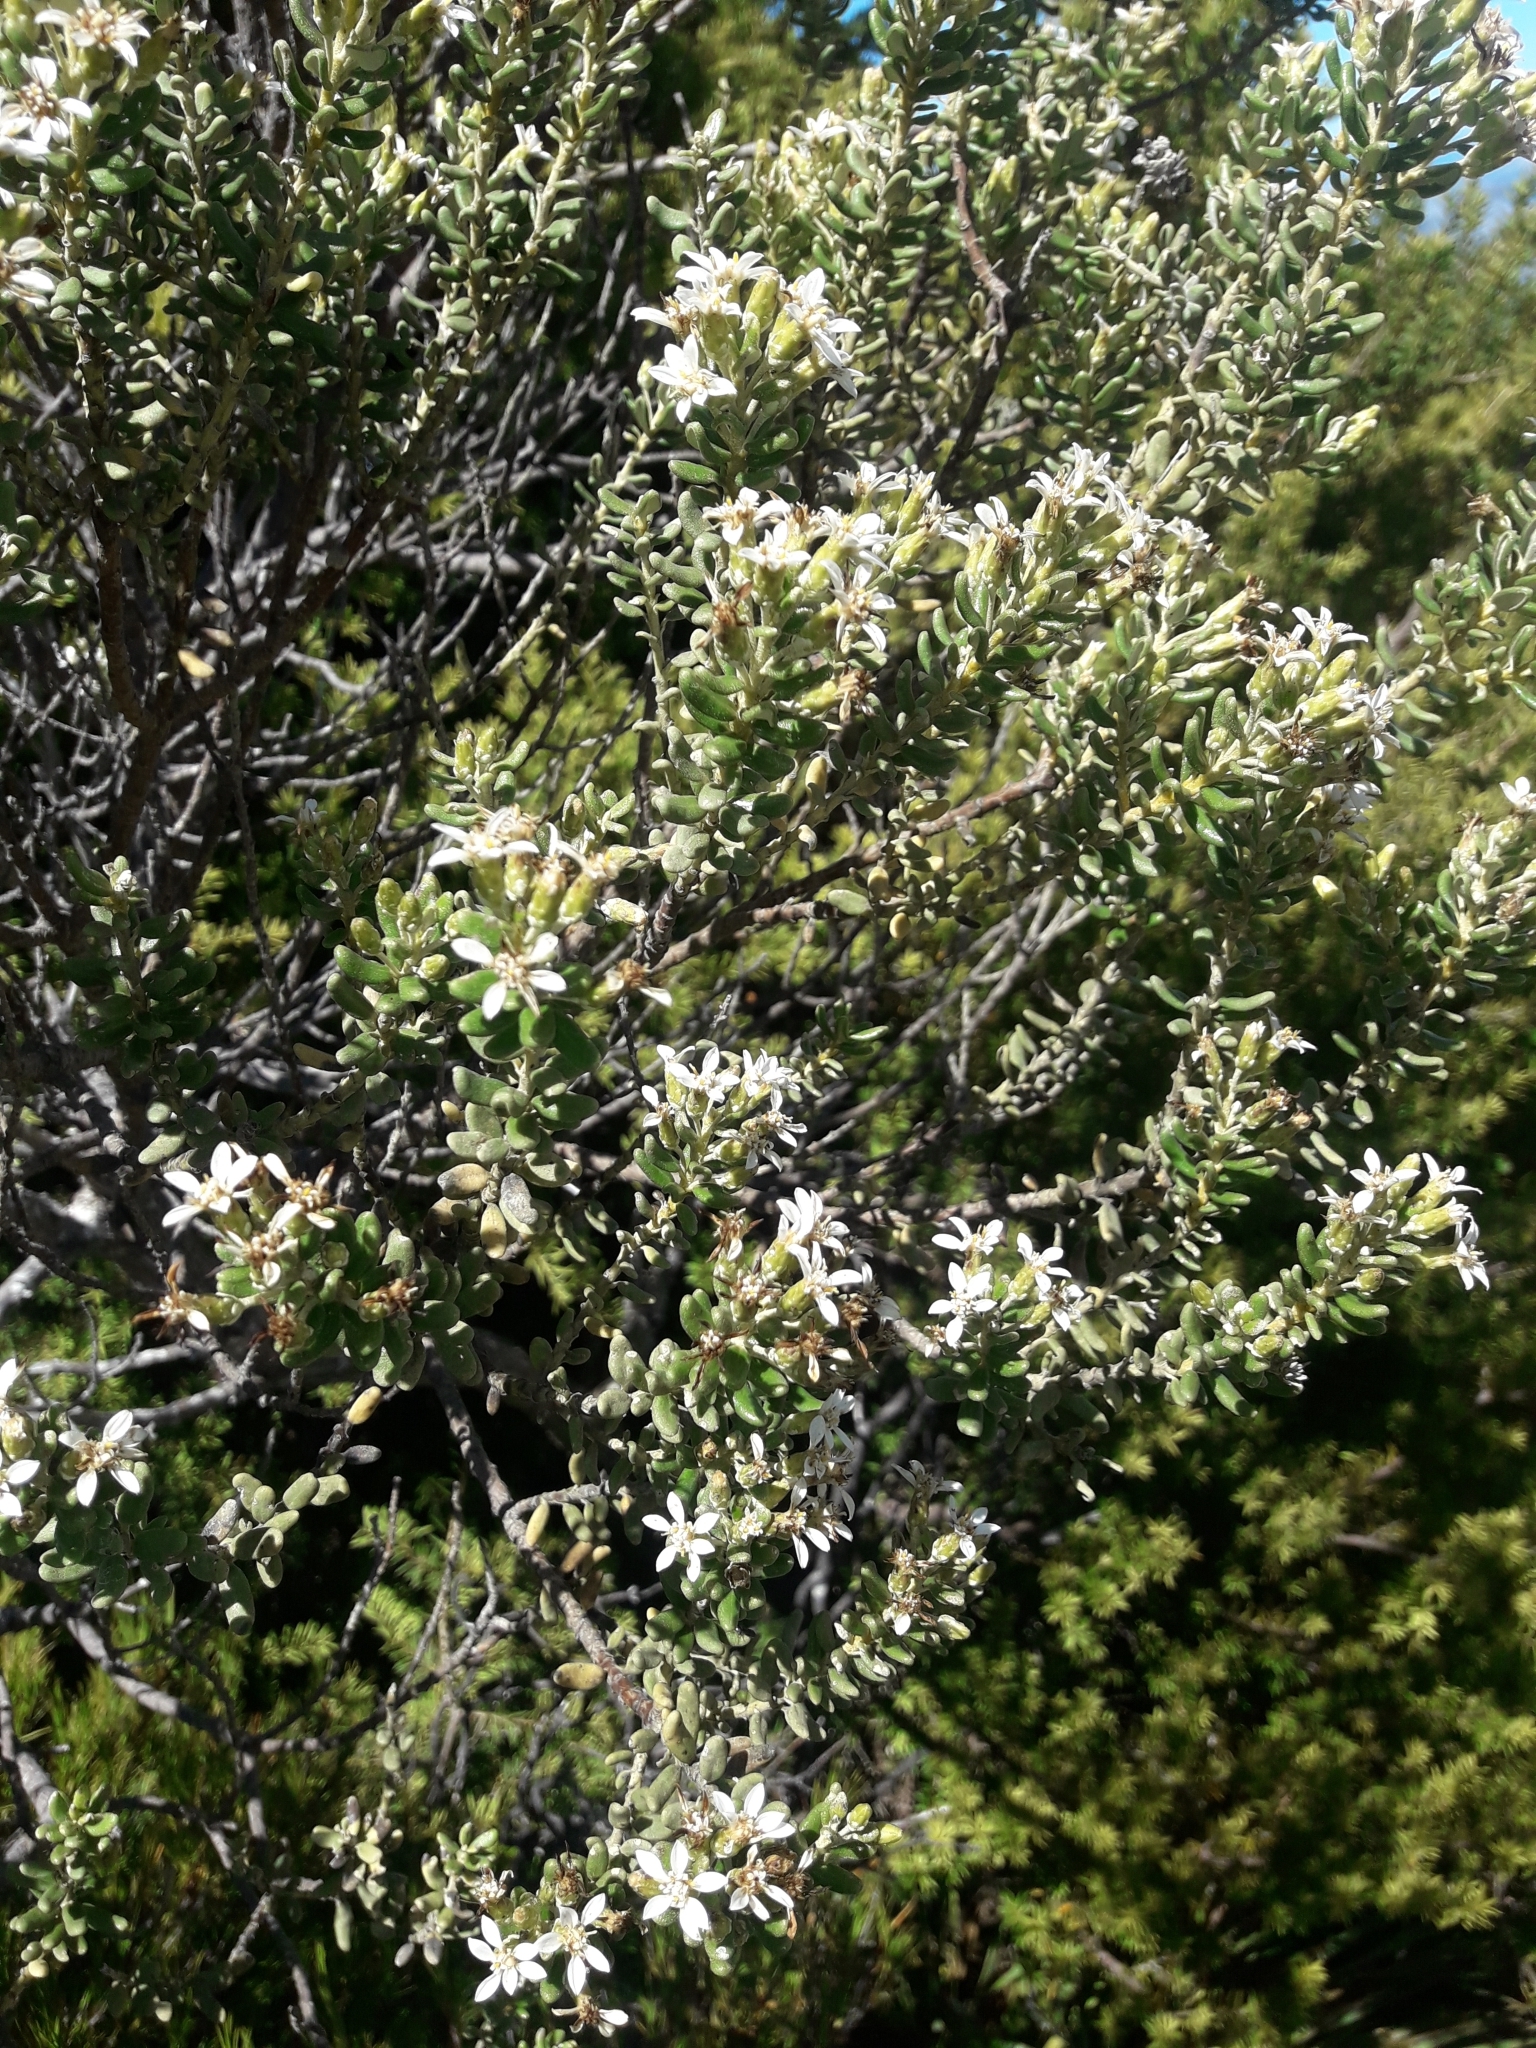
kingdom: Plantae
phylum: Tracheophyta
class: Magnoliopsida
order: Asterales
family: Asteraceae
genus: Olearia
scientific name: Olearia cymbifolia
